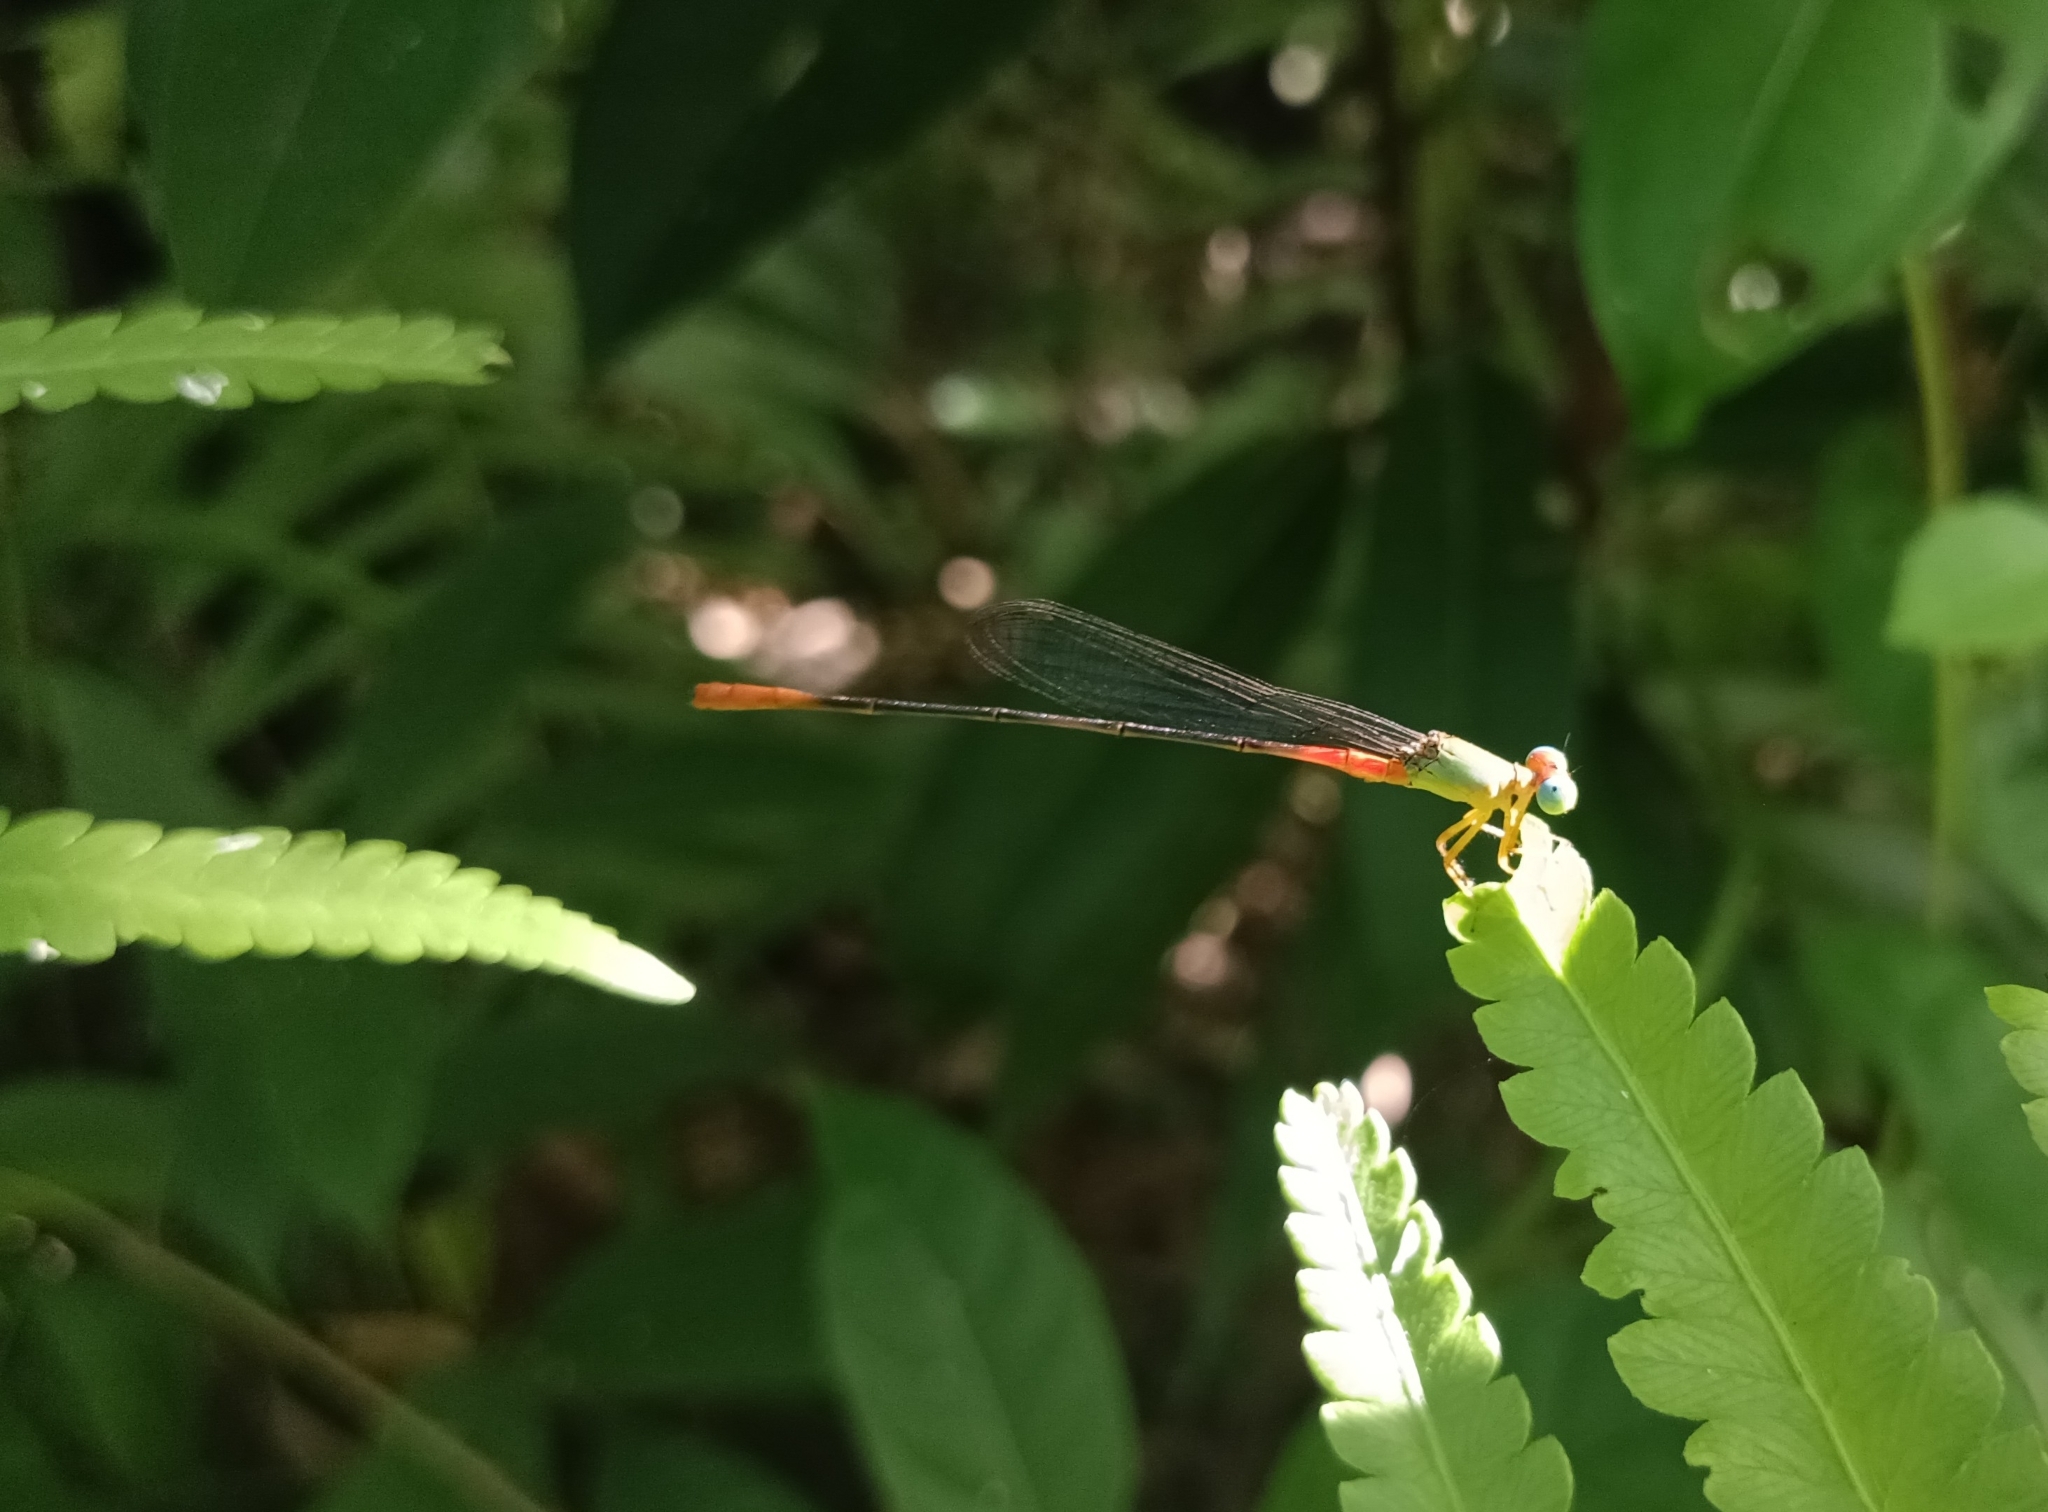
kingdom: Animalia
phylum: Arthropoda
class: Insecta
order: Odonata
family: Coenagrionidae
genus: Ceriagrion
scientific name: Ceriagrion cerinorubellum
